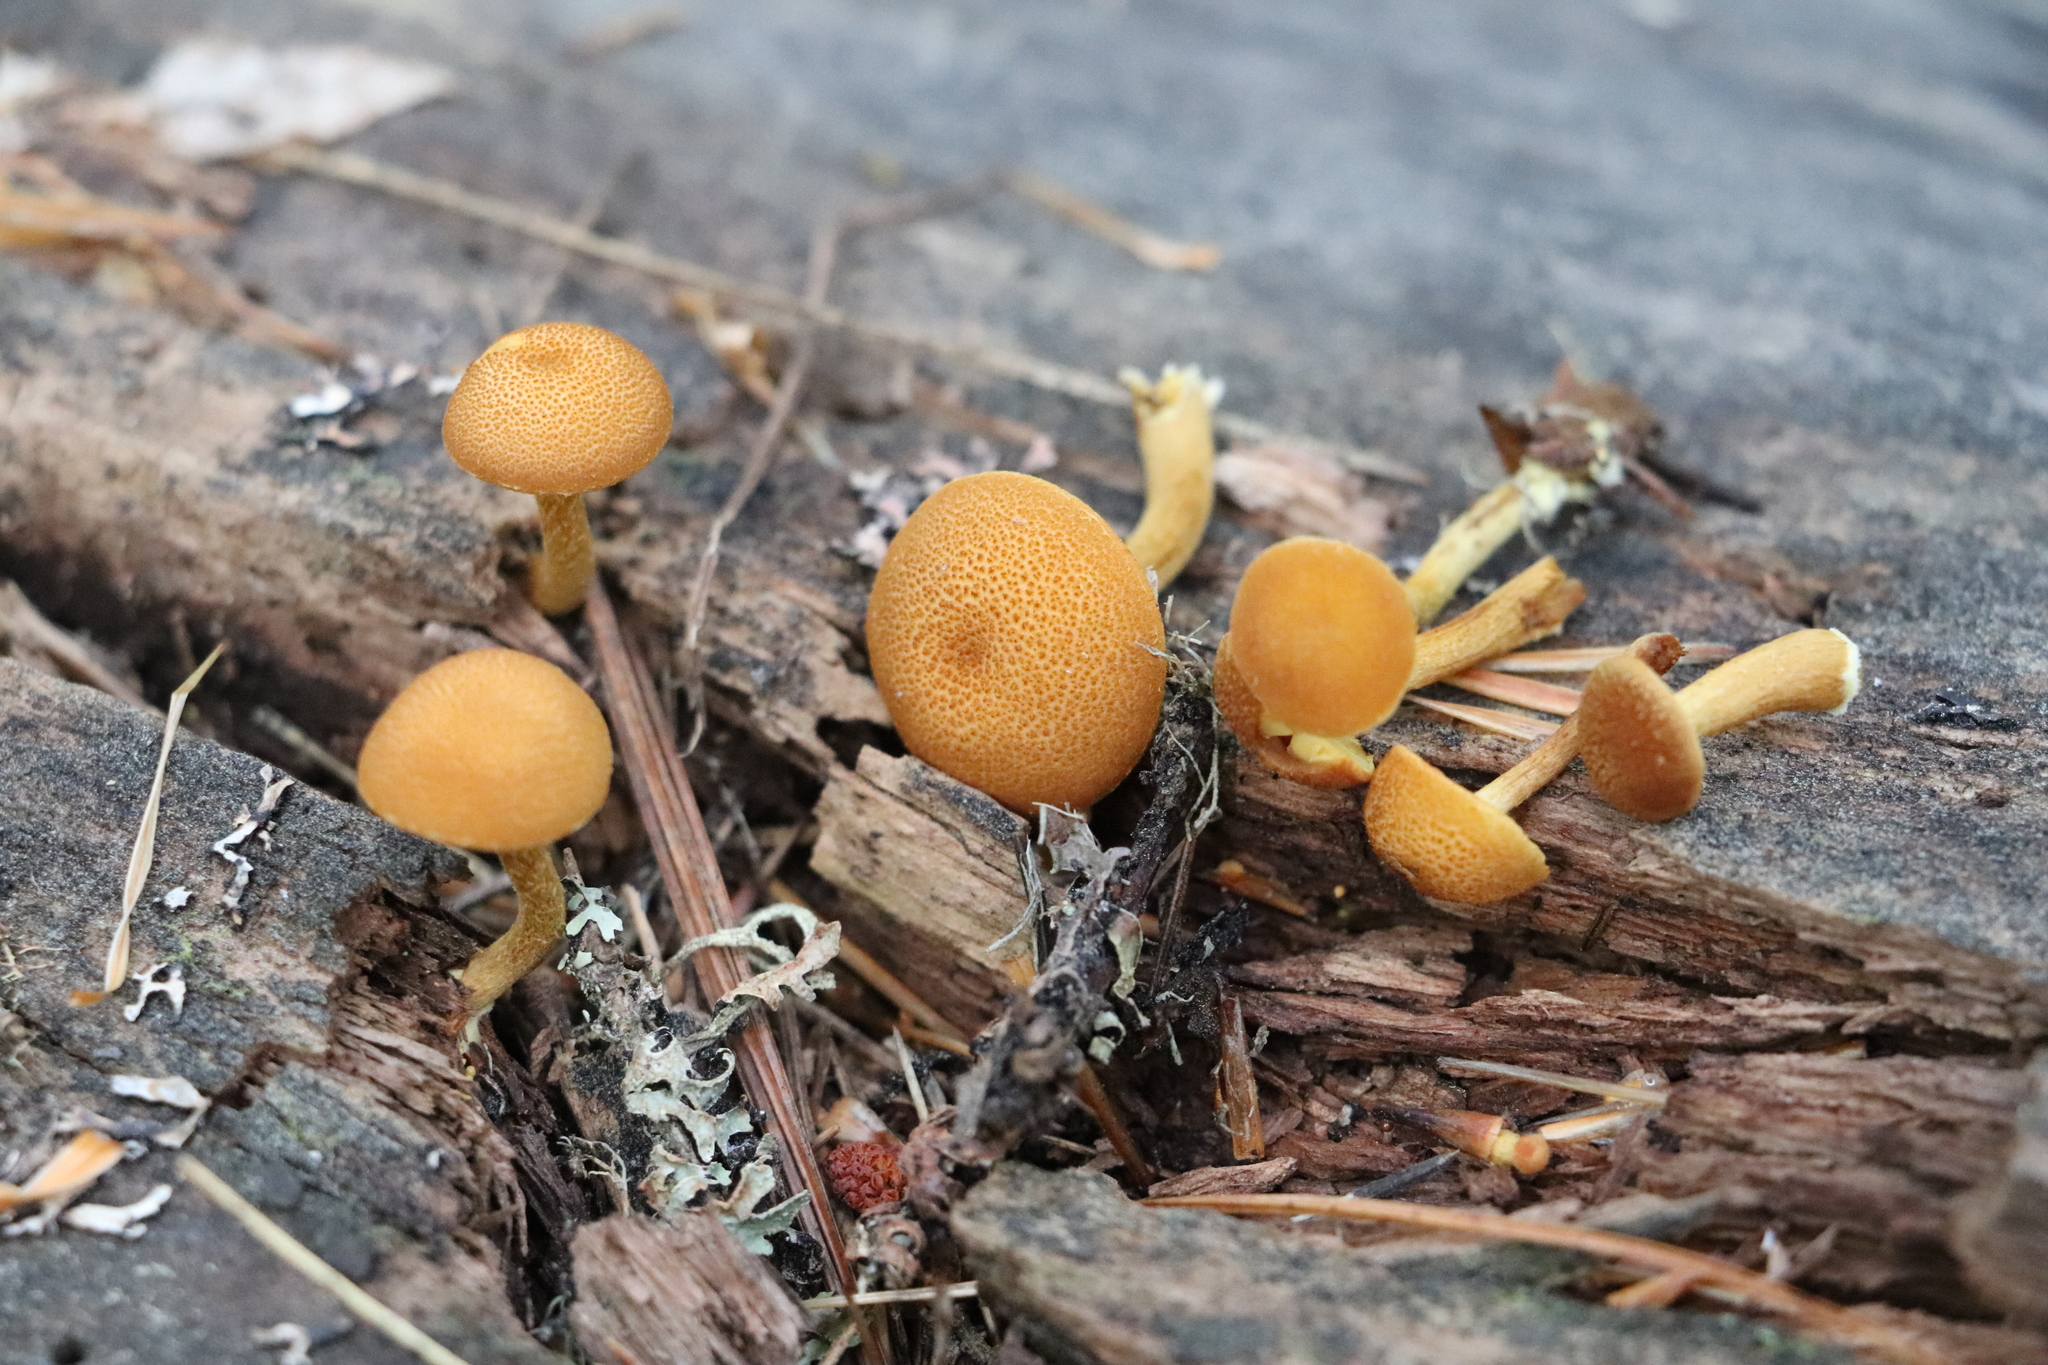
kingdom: Fungi
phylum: Basidiomycota
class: Agaricomycetes
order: Agaricales
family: Tubariaceae
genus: Flammulaster
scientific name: Flammulaster limulatus
